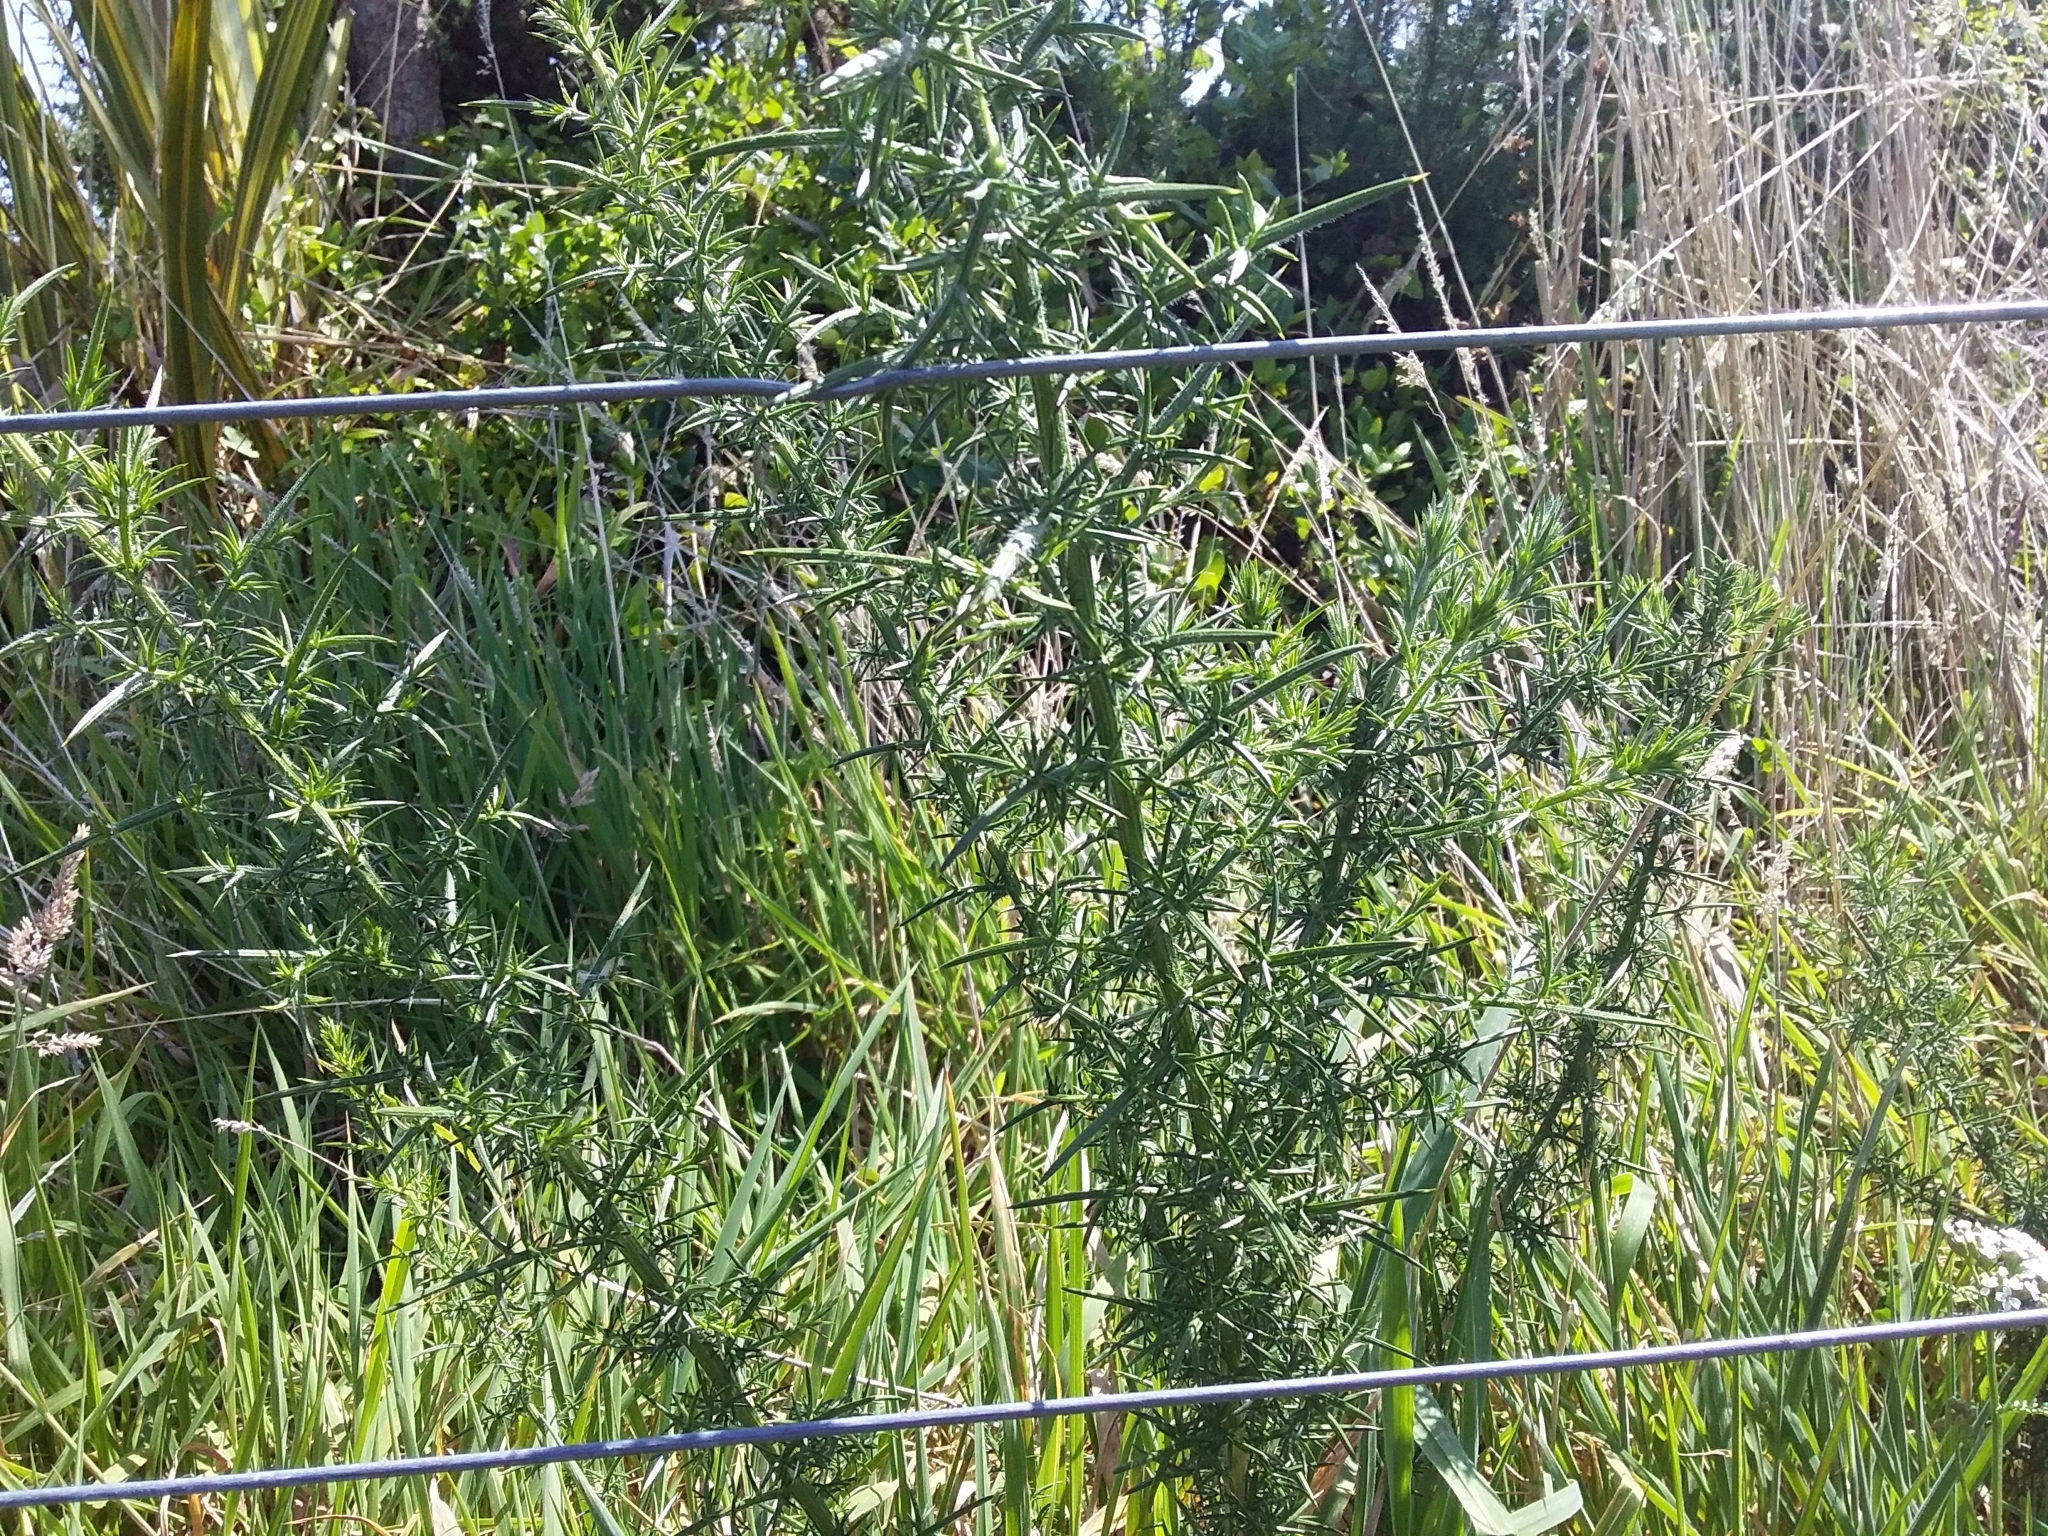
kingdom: Plantae
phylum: Tracheophyta
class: Magnoliopsida
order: Fabales
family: Fabaceae
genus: Ulex
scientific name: Ulex europaeus
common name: Common gorse
